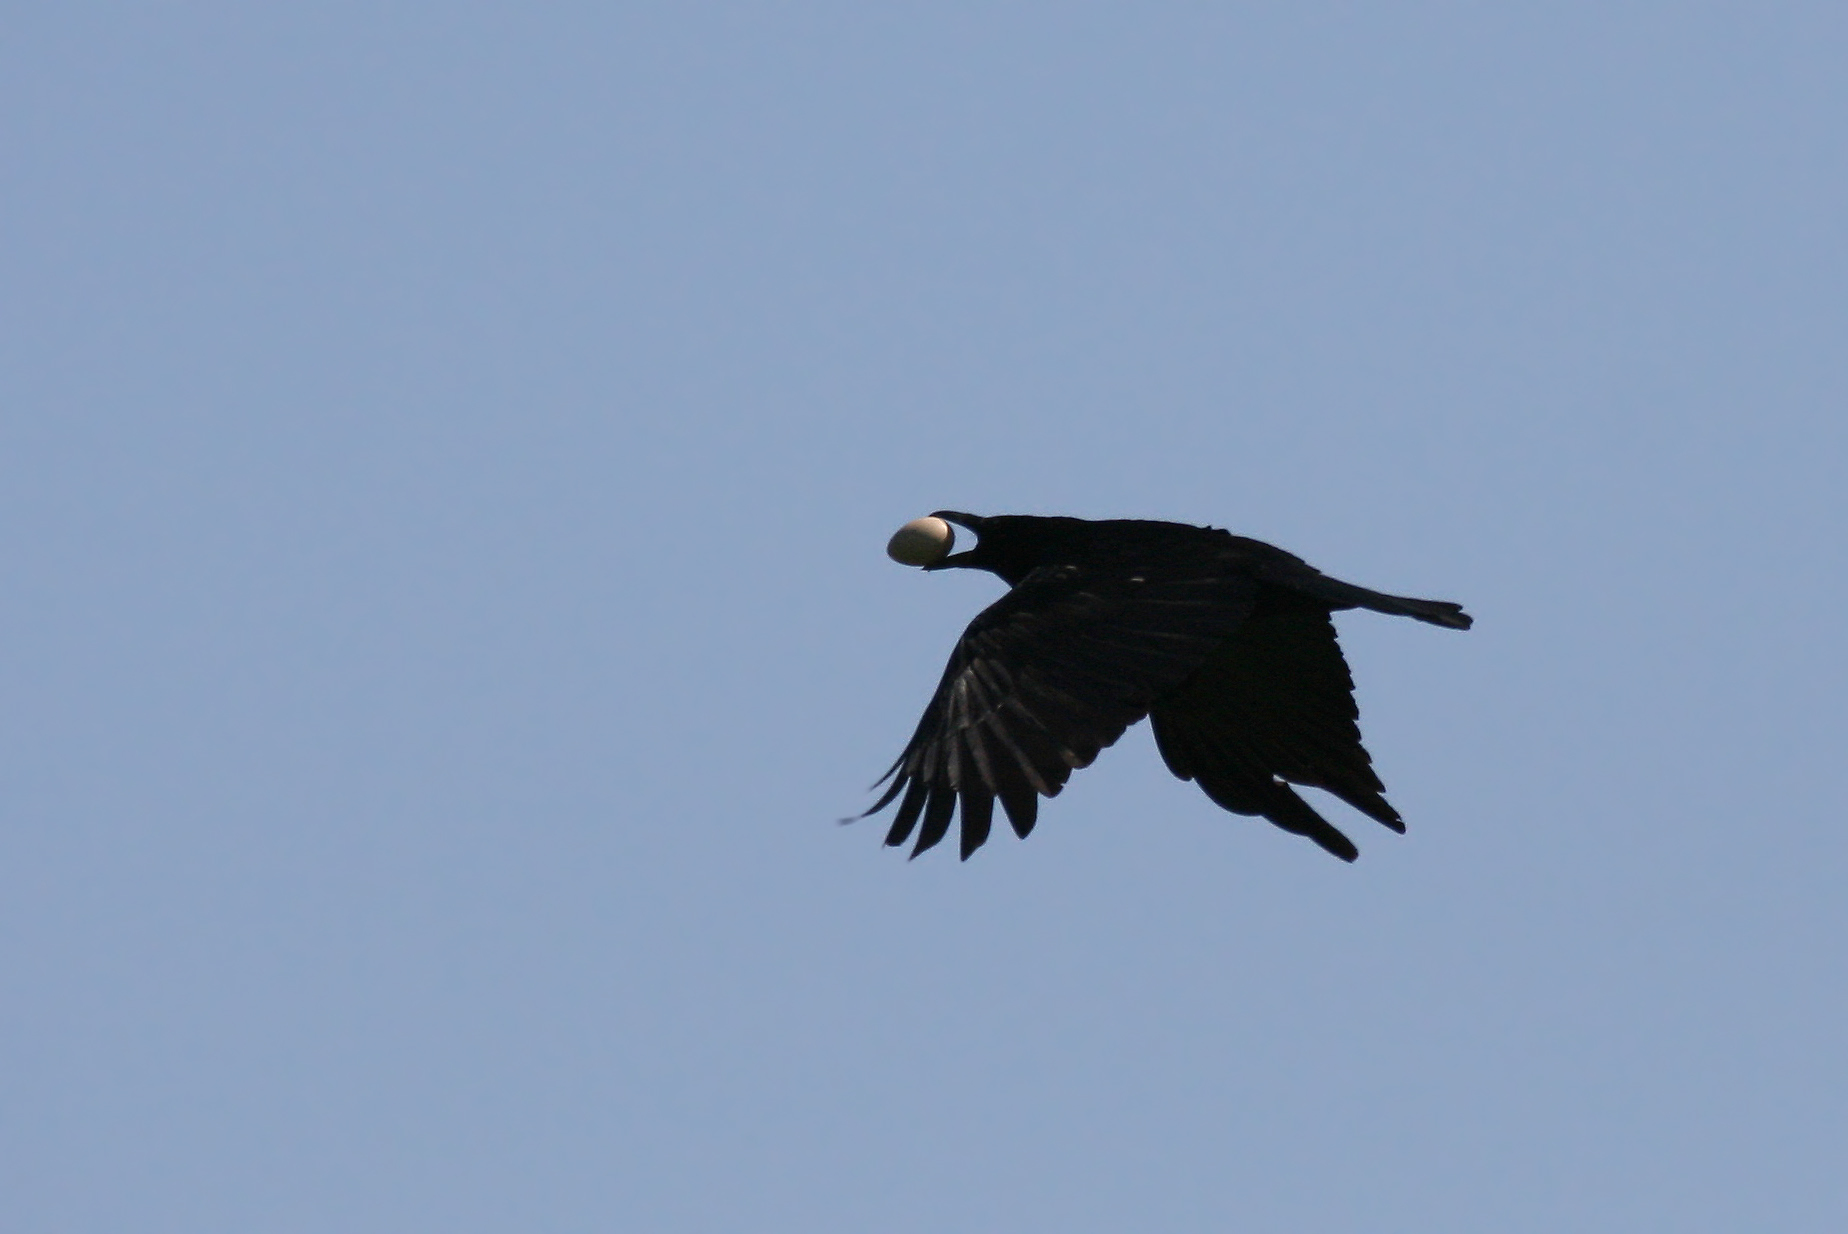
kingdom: Animalia
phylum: Chordata
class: Aves
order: Passeriformes
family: Corvidae
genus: Corvus
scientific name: Corvus corone
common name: Carrion crow
